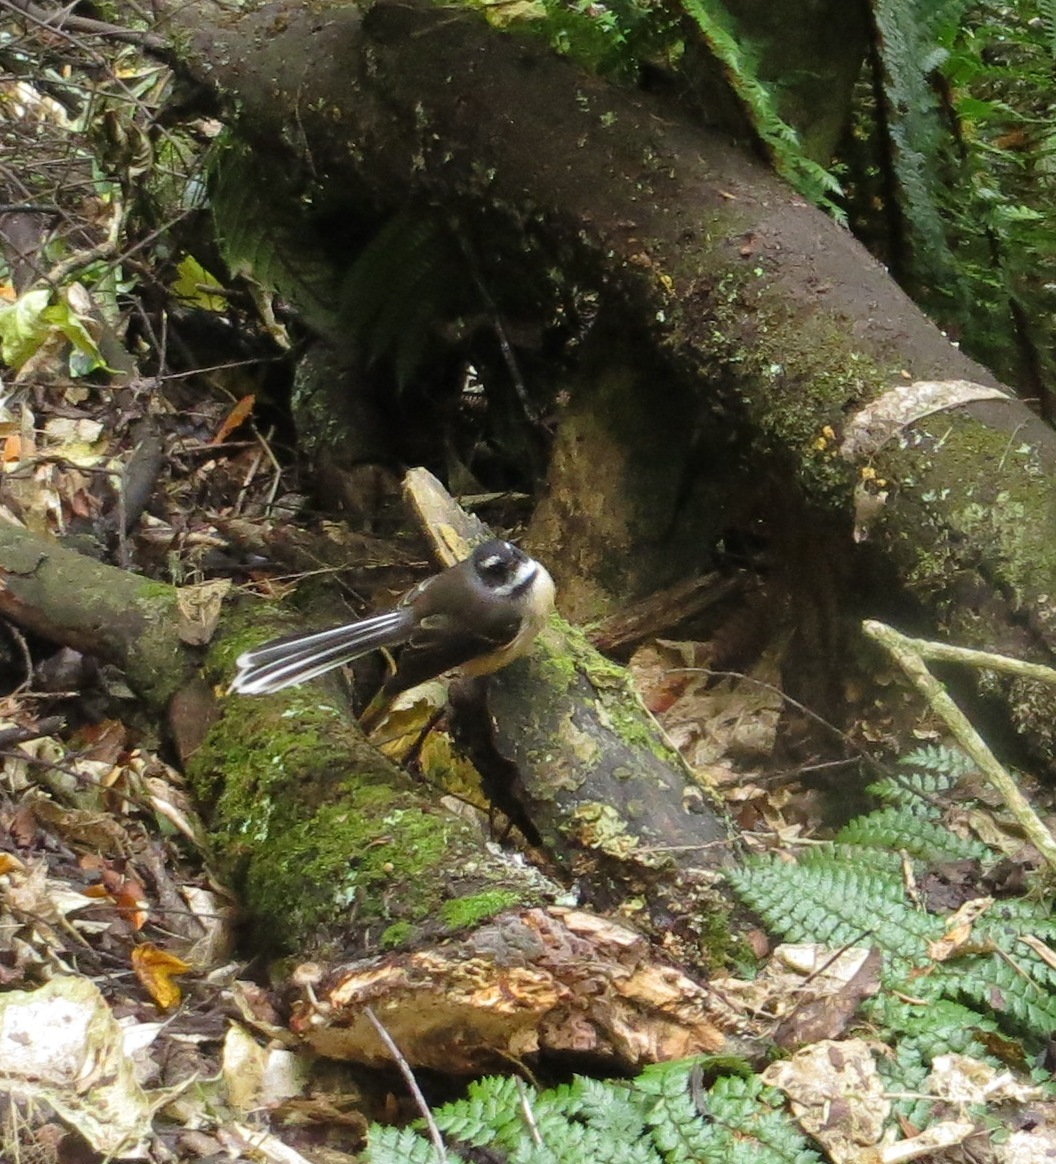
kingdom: Animalia
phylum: Chordata
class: Aves
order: Passeriformes
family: Rhipiduridae
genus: Rhipidura
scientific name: Rhipidura fuliginosa
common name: New zealand fantail
